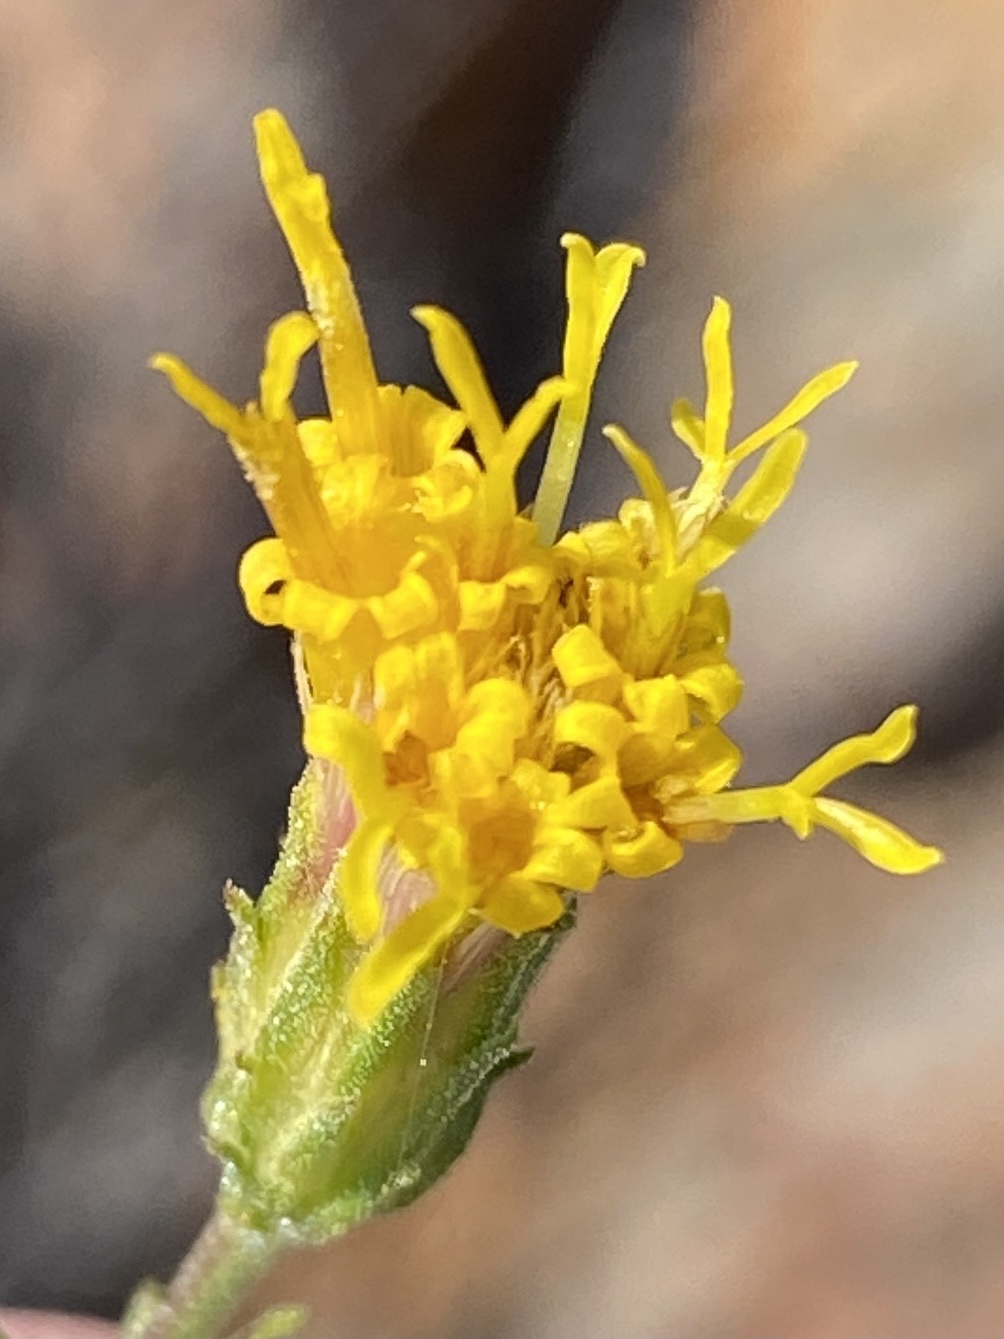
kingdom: Plantae
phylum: Tracheophyta
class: Magnoliopsida
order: Asterales
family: Asteraceae
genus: Pegolettia
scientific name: Pegolettia retrofracta
